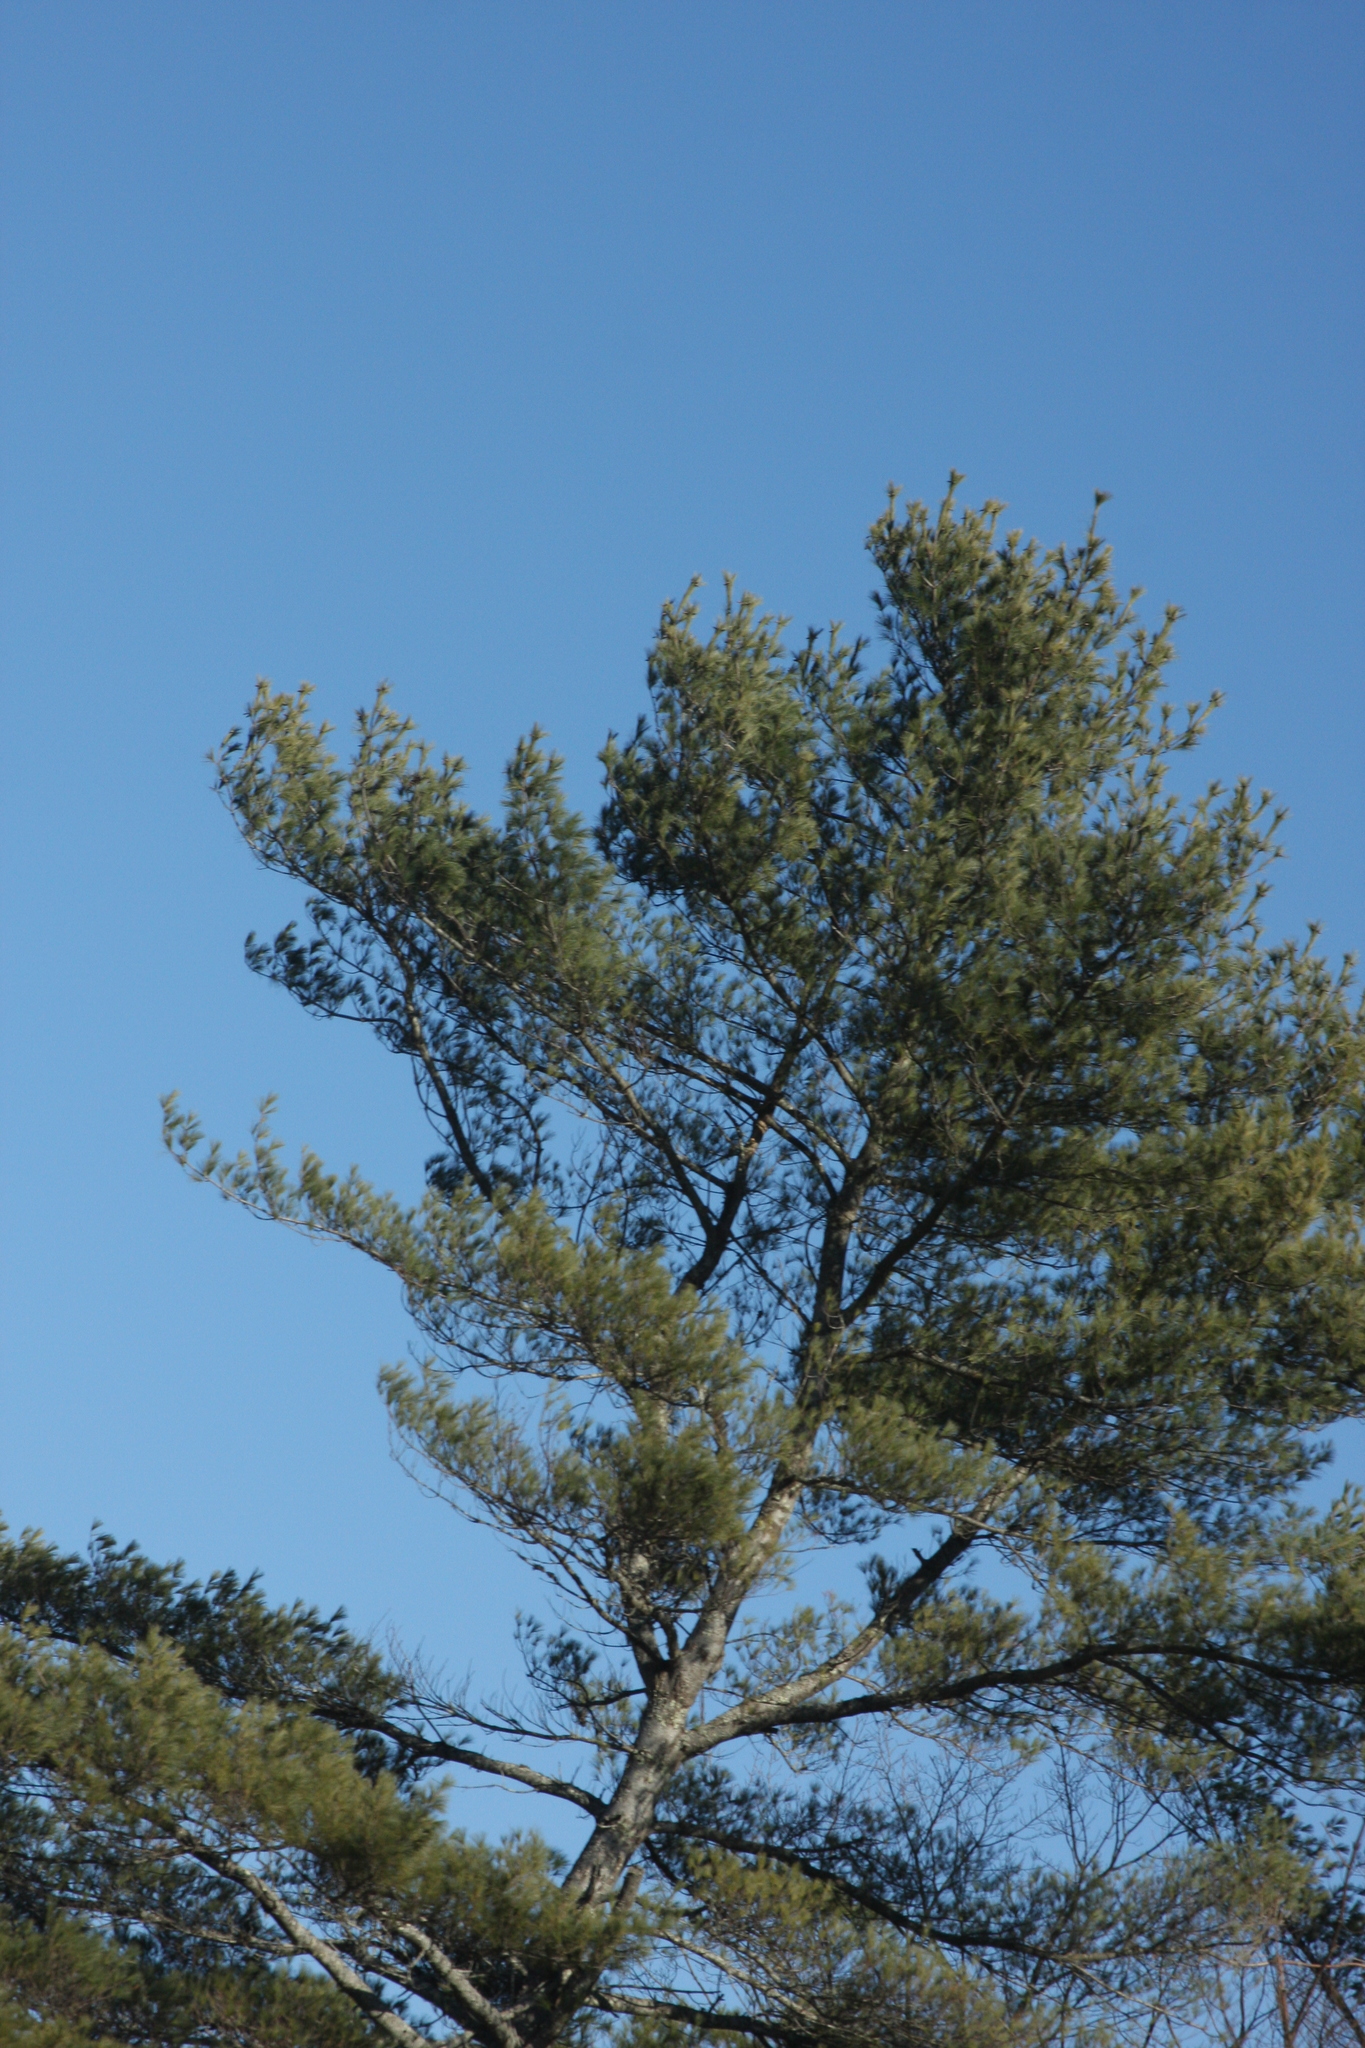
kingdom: Plantae
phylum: Tracheophyta
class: Pinopsida
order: Pinales
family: Pinaceae
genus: Pinus
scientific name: Pinus strobus
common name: Weymouth pine
